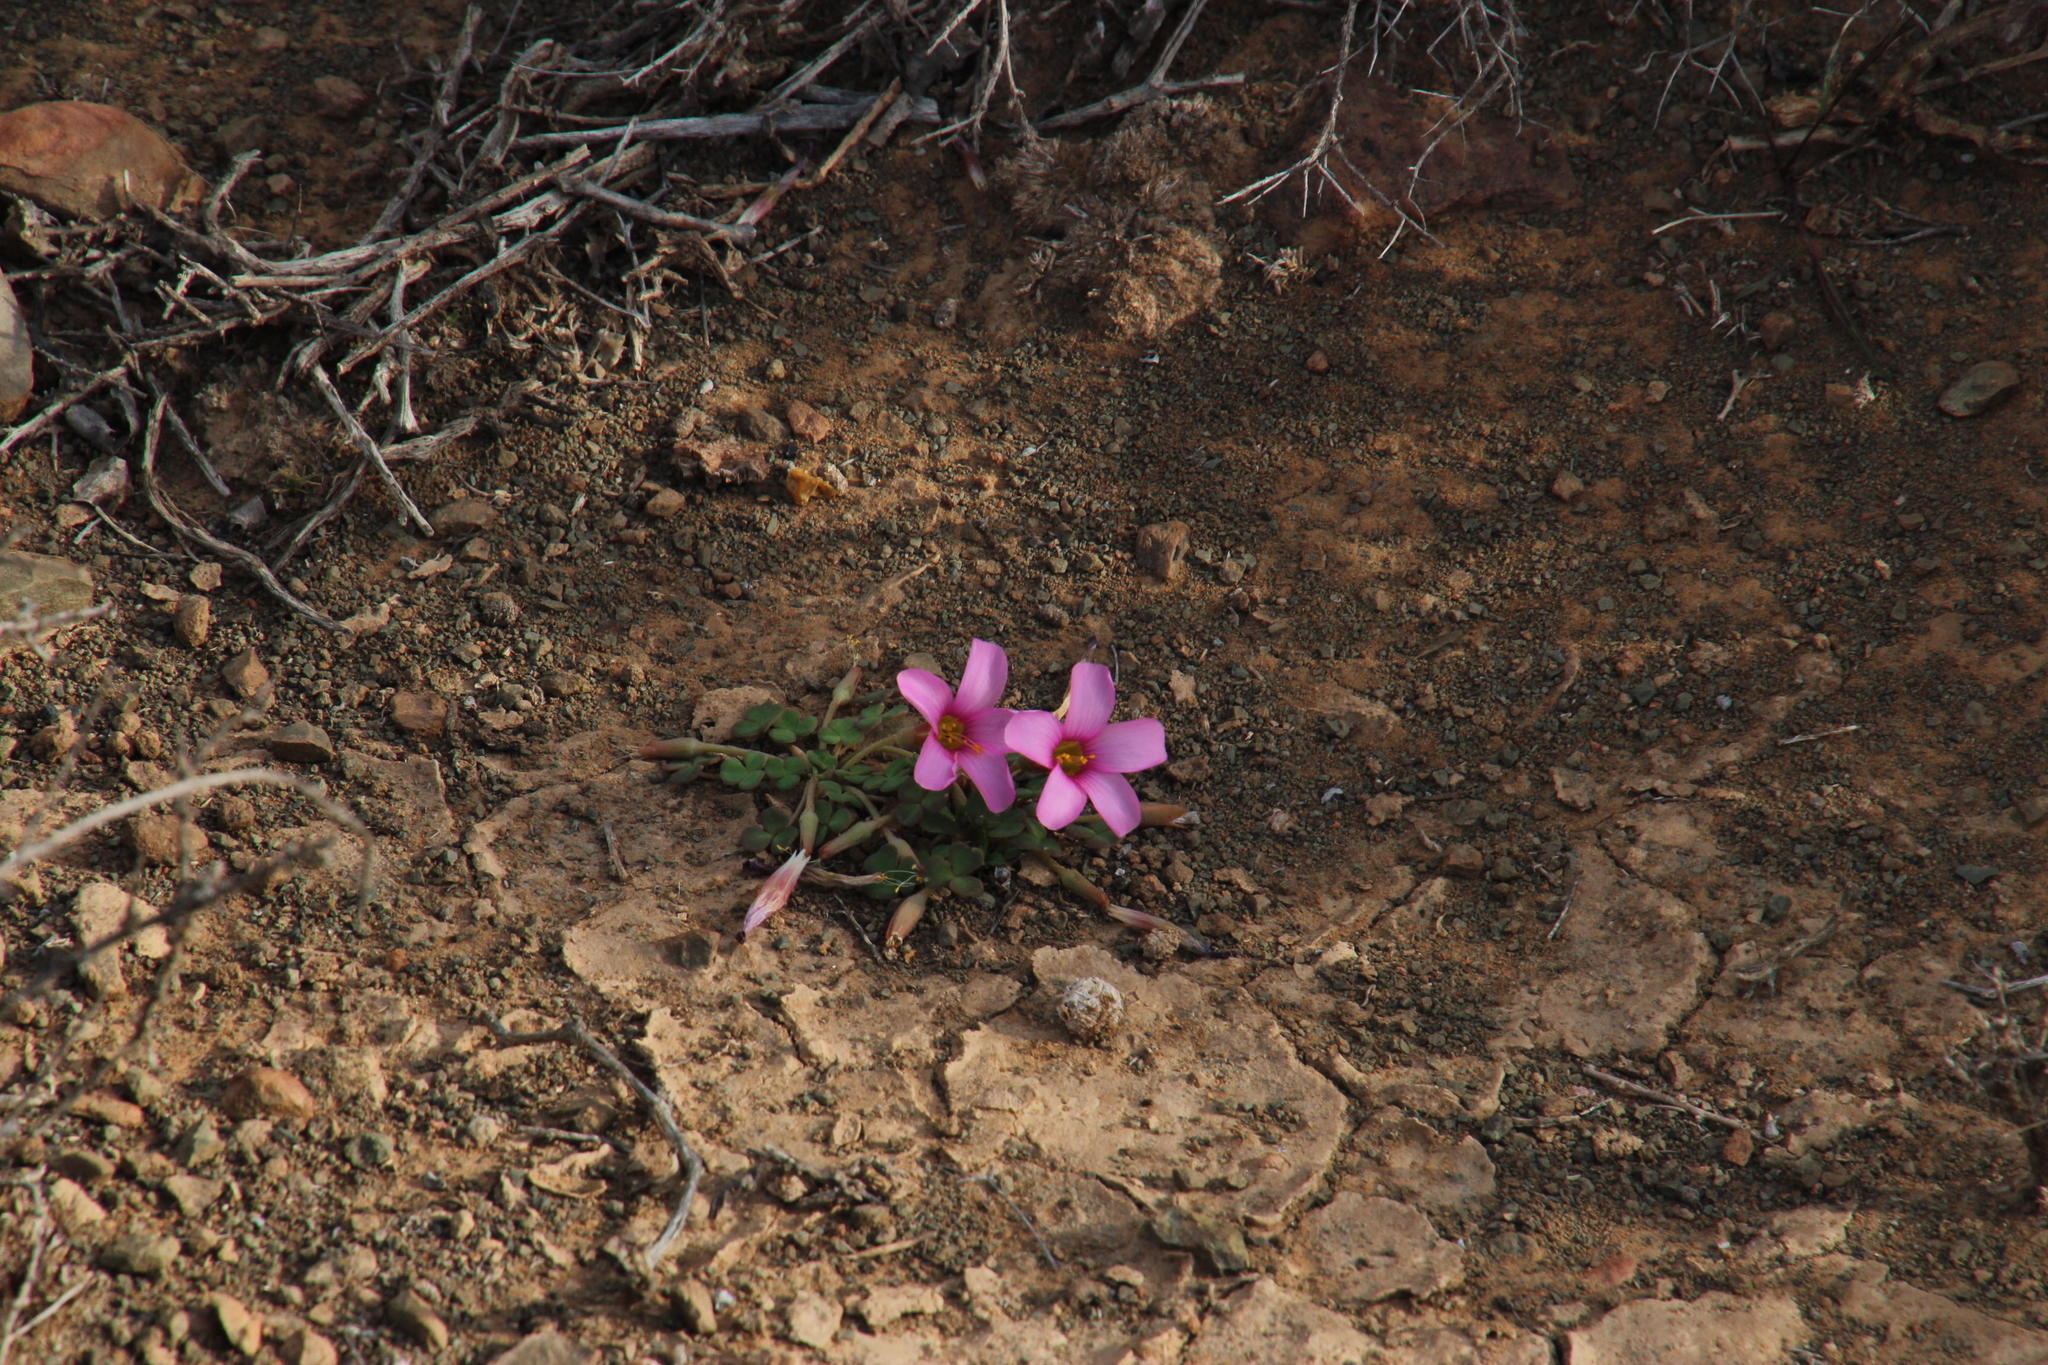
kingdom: Plantae
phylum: Tracheophyta
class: Magnoliopsida
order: Oxalidales
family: Oxalidaceae
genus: Oxalis
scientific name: Oxalis fergusoniae
